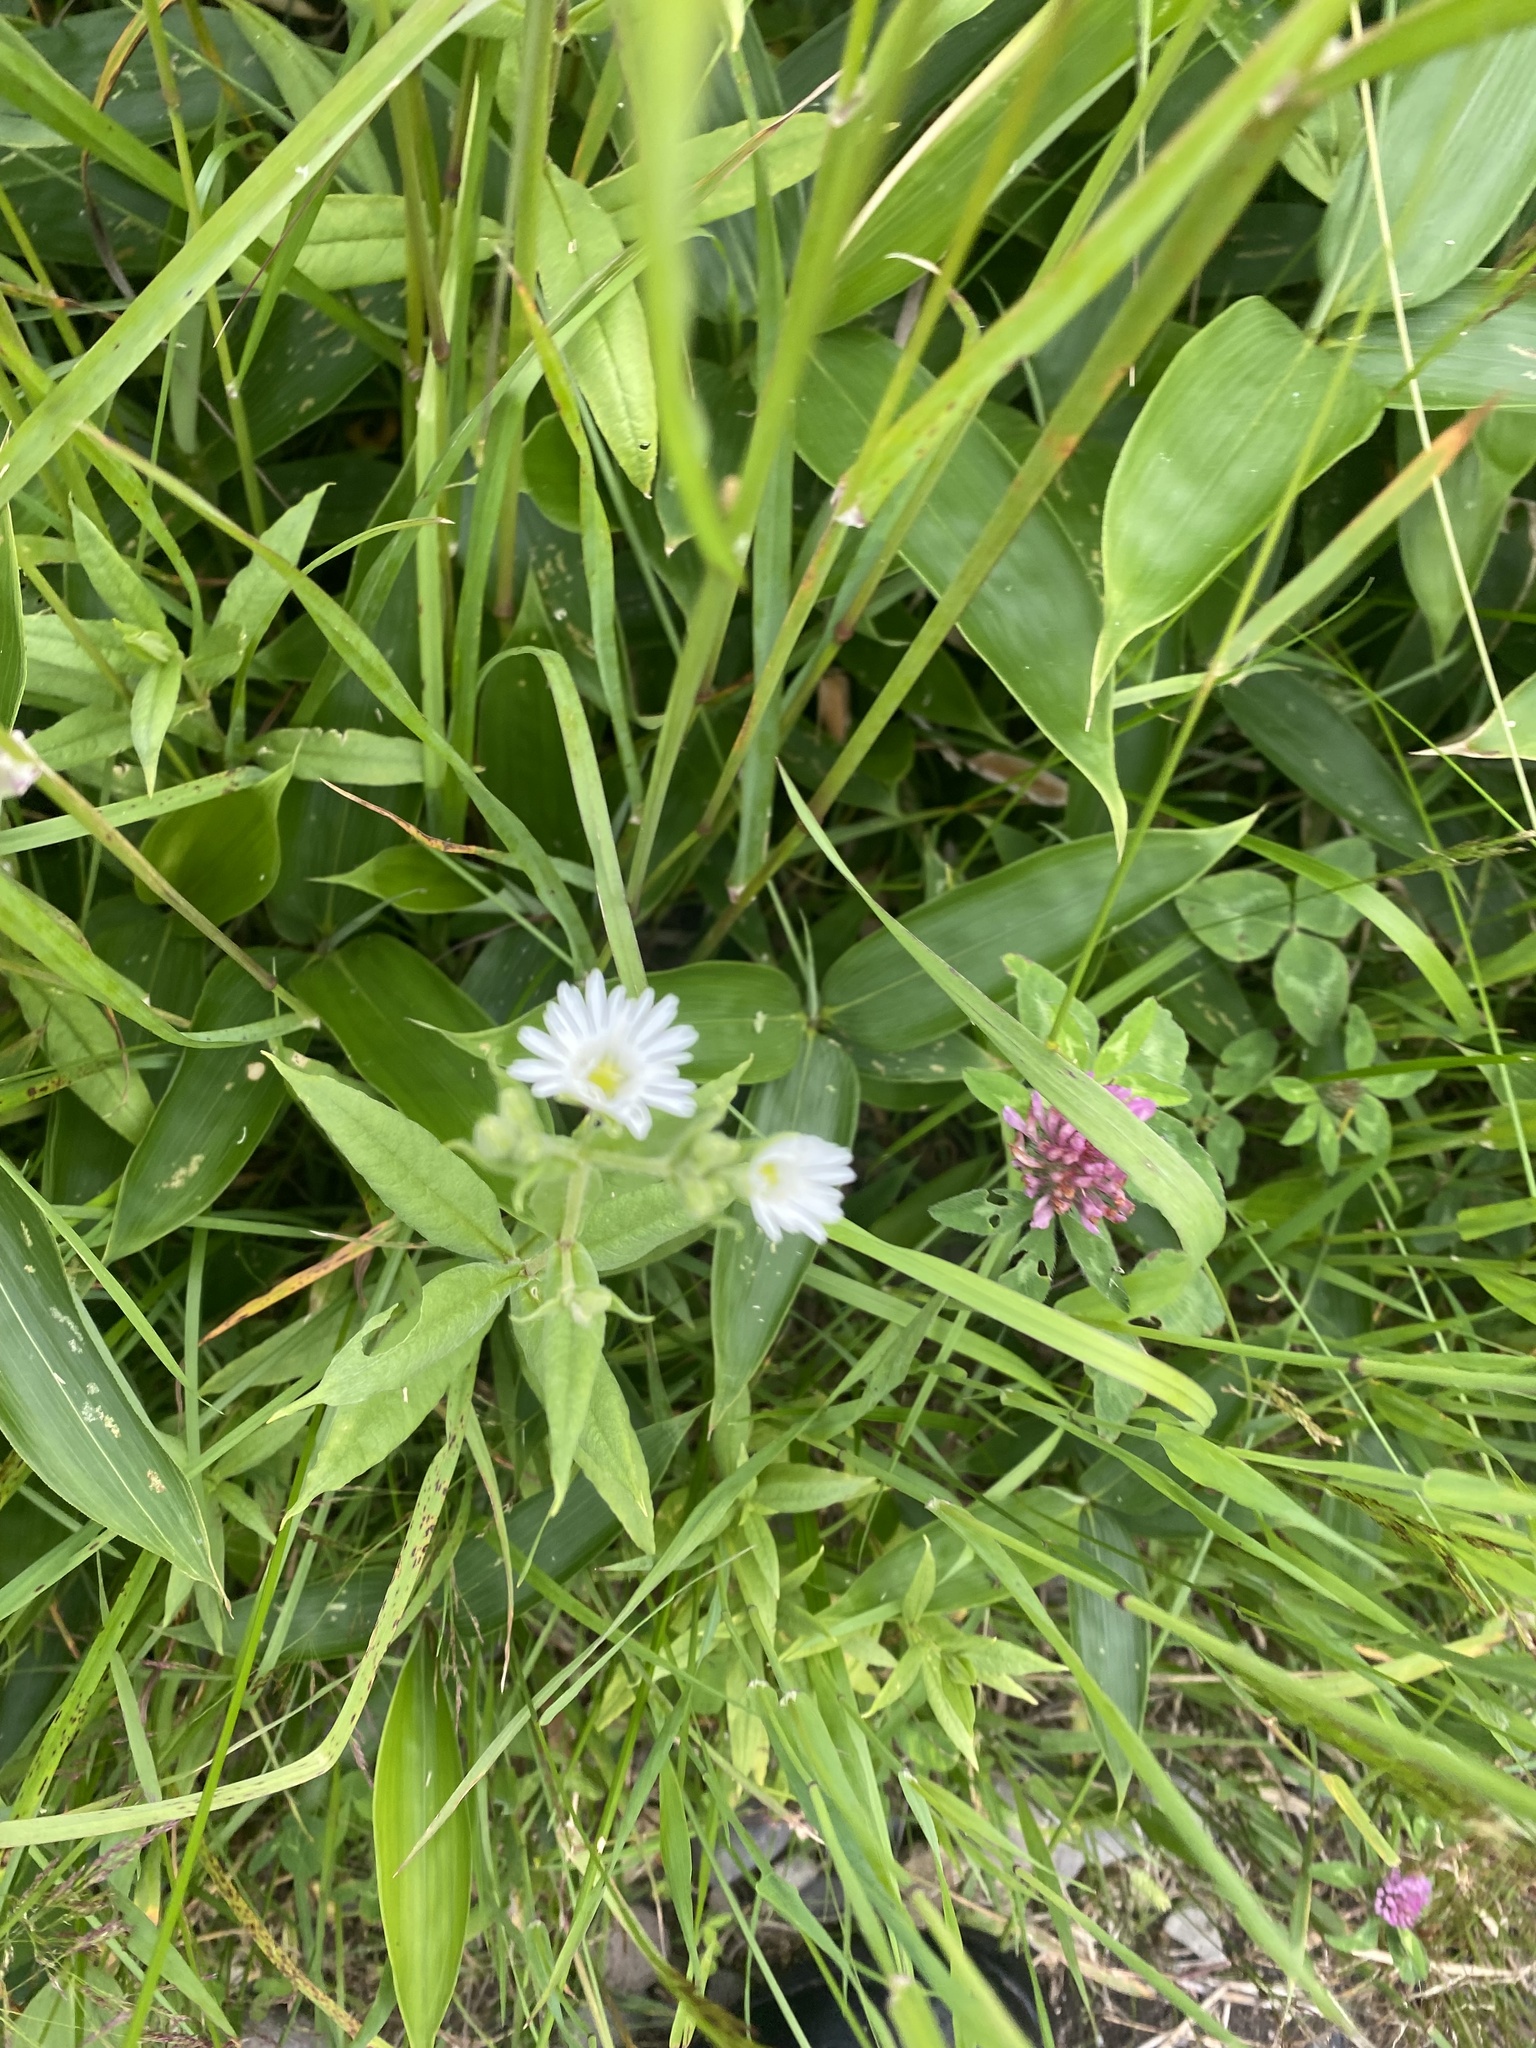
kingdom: Plantae
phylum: Tracheophyta
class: Magnoliopsida
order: Caryophyllales
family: Caryophyllaceae
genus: Stellaria
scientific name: Stellaria radians
